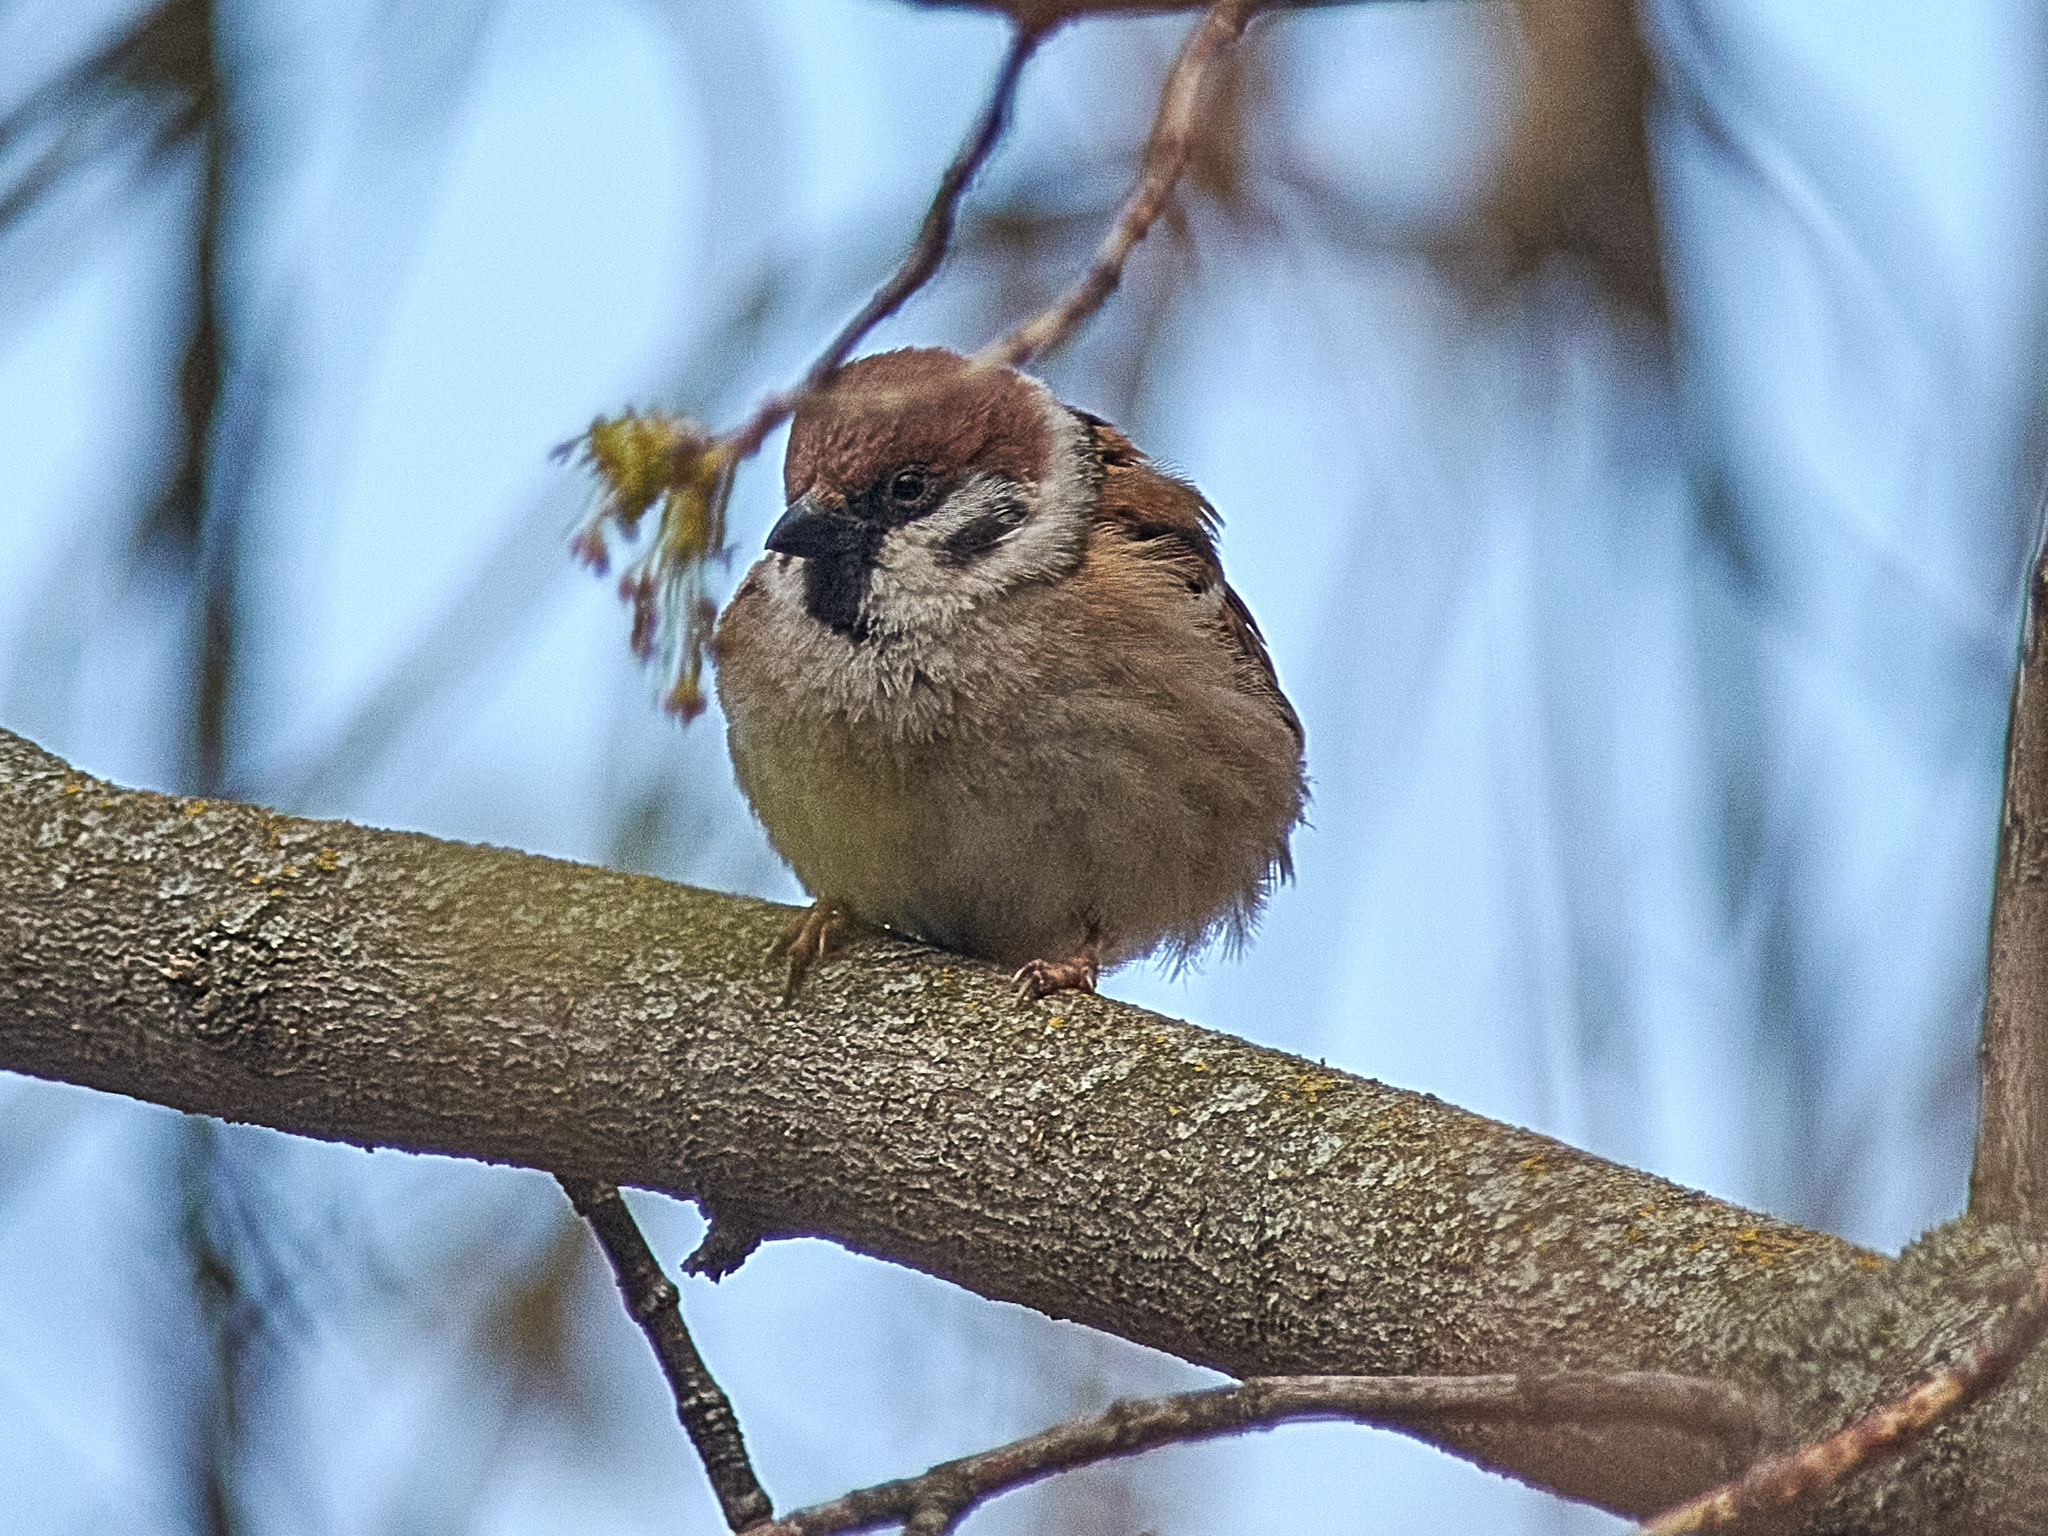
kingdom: Animalia
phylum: Chordata
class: Aves
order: Passeriformes
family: Passeridae
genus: Passer
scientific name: Passer montanus
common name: Eurasian tree sparrow
